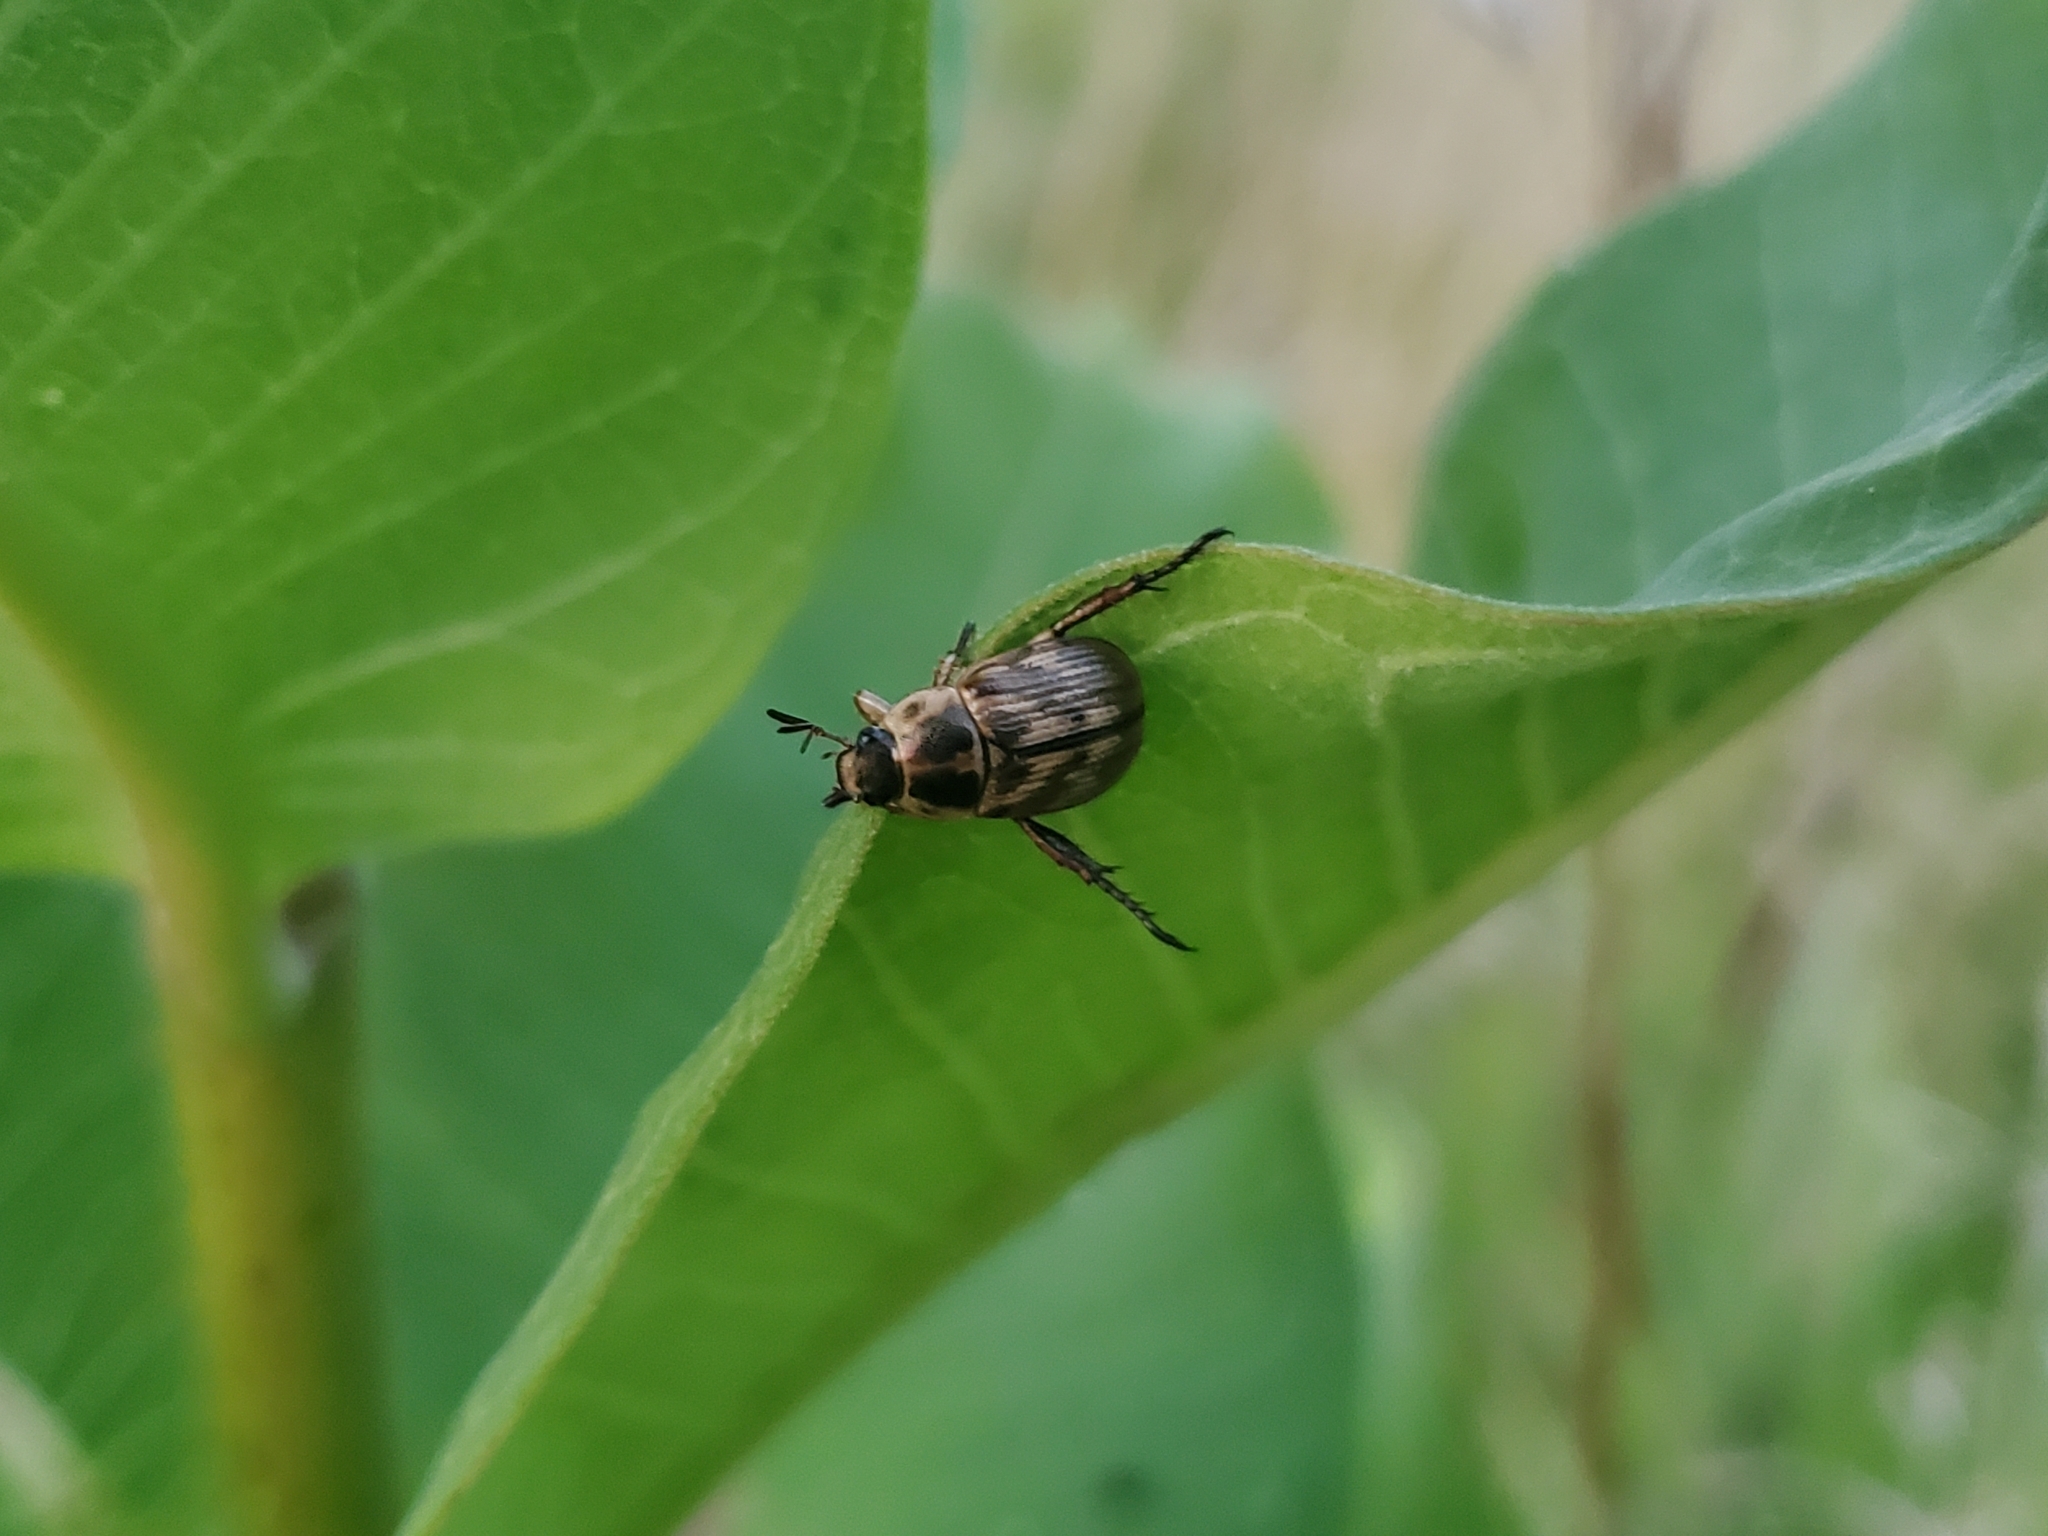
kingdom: Animalia
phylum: Arthropoda
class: Insecta
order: Coleoptera
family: Scarabaeidae
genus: Exomala
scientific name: Exomala orientalis
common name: Oriental beetle
